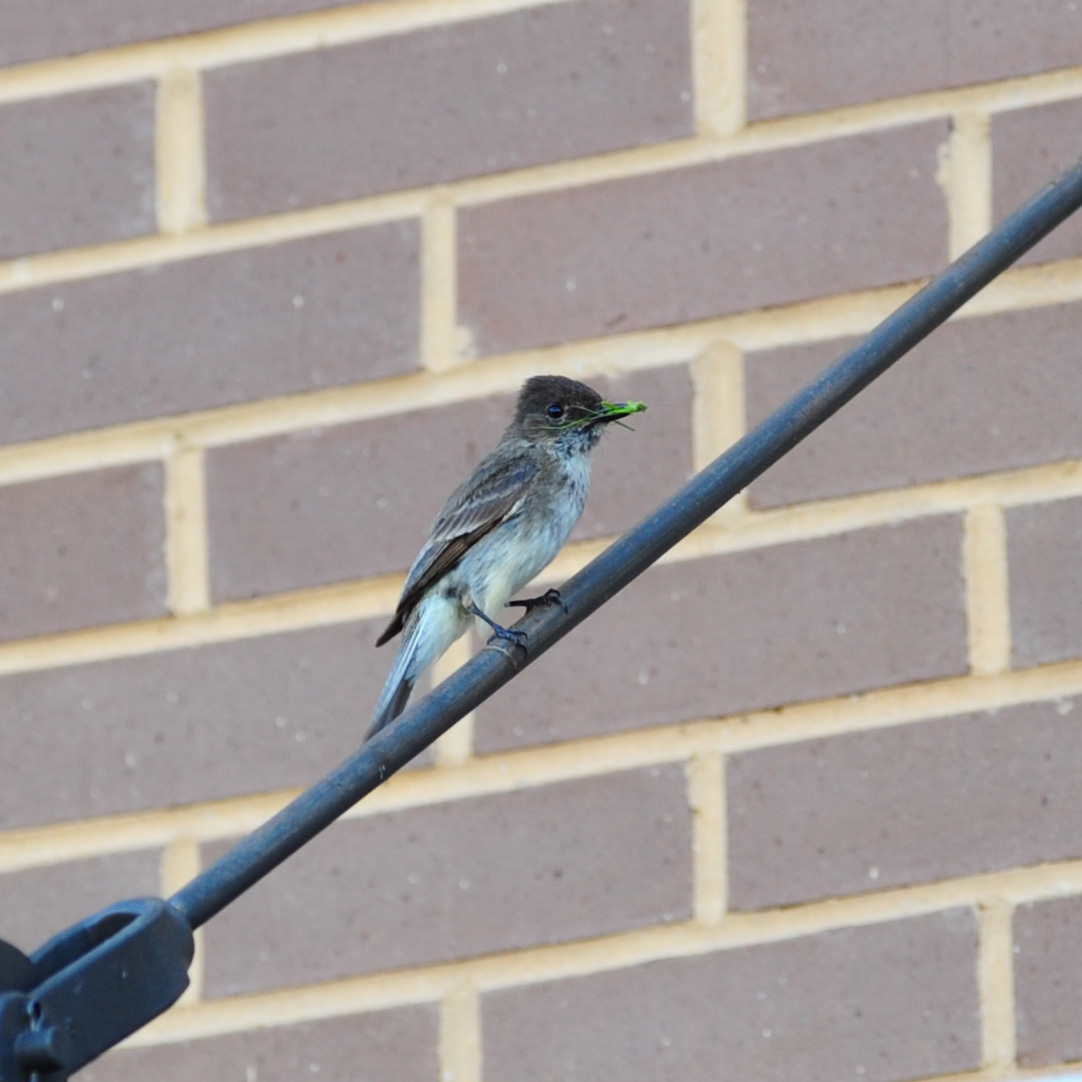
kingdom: Animalia
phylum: Chordata
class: Aves
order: Passeriformes
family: Tyrannidae
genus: Sayornis
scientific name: Sayornis phoebe
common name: Eastern phoebe
